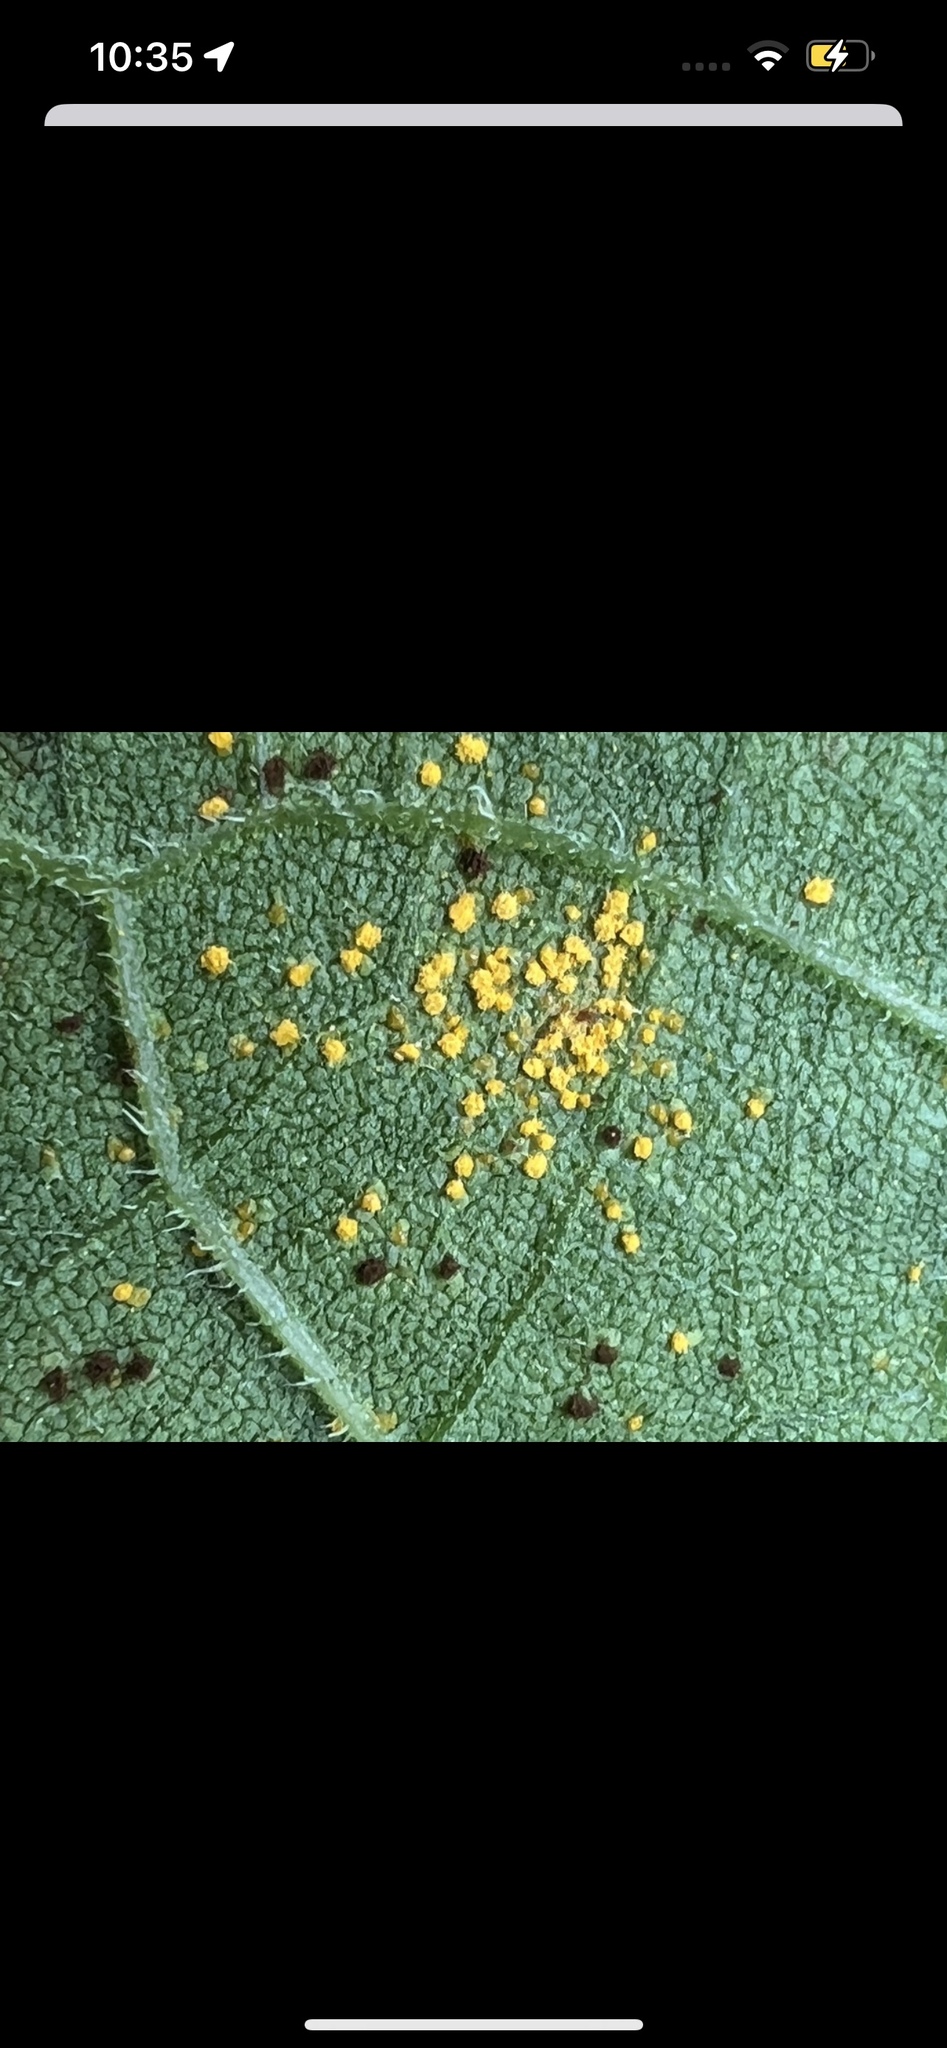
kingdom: Fungi
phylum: Basidiomycota
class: Pucciniomycetes
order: Pucciniales
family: Coleosporiaceae
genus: Coleosporium
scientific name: Coleosporium helianthi
